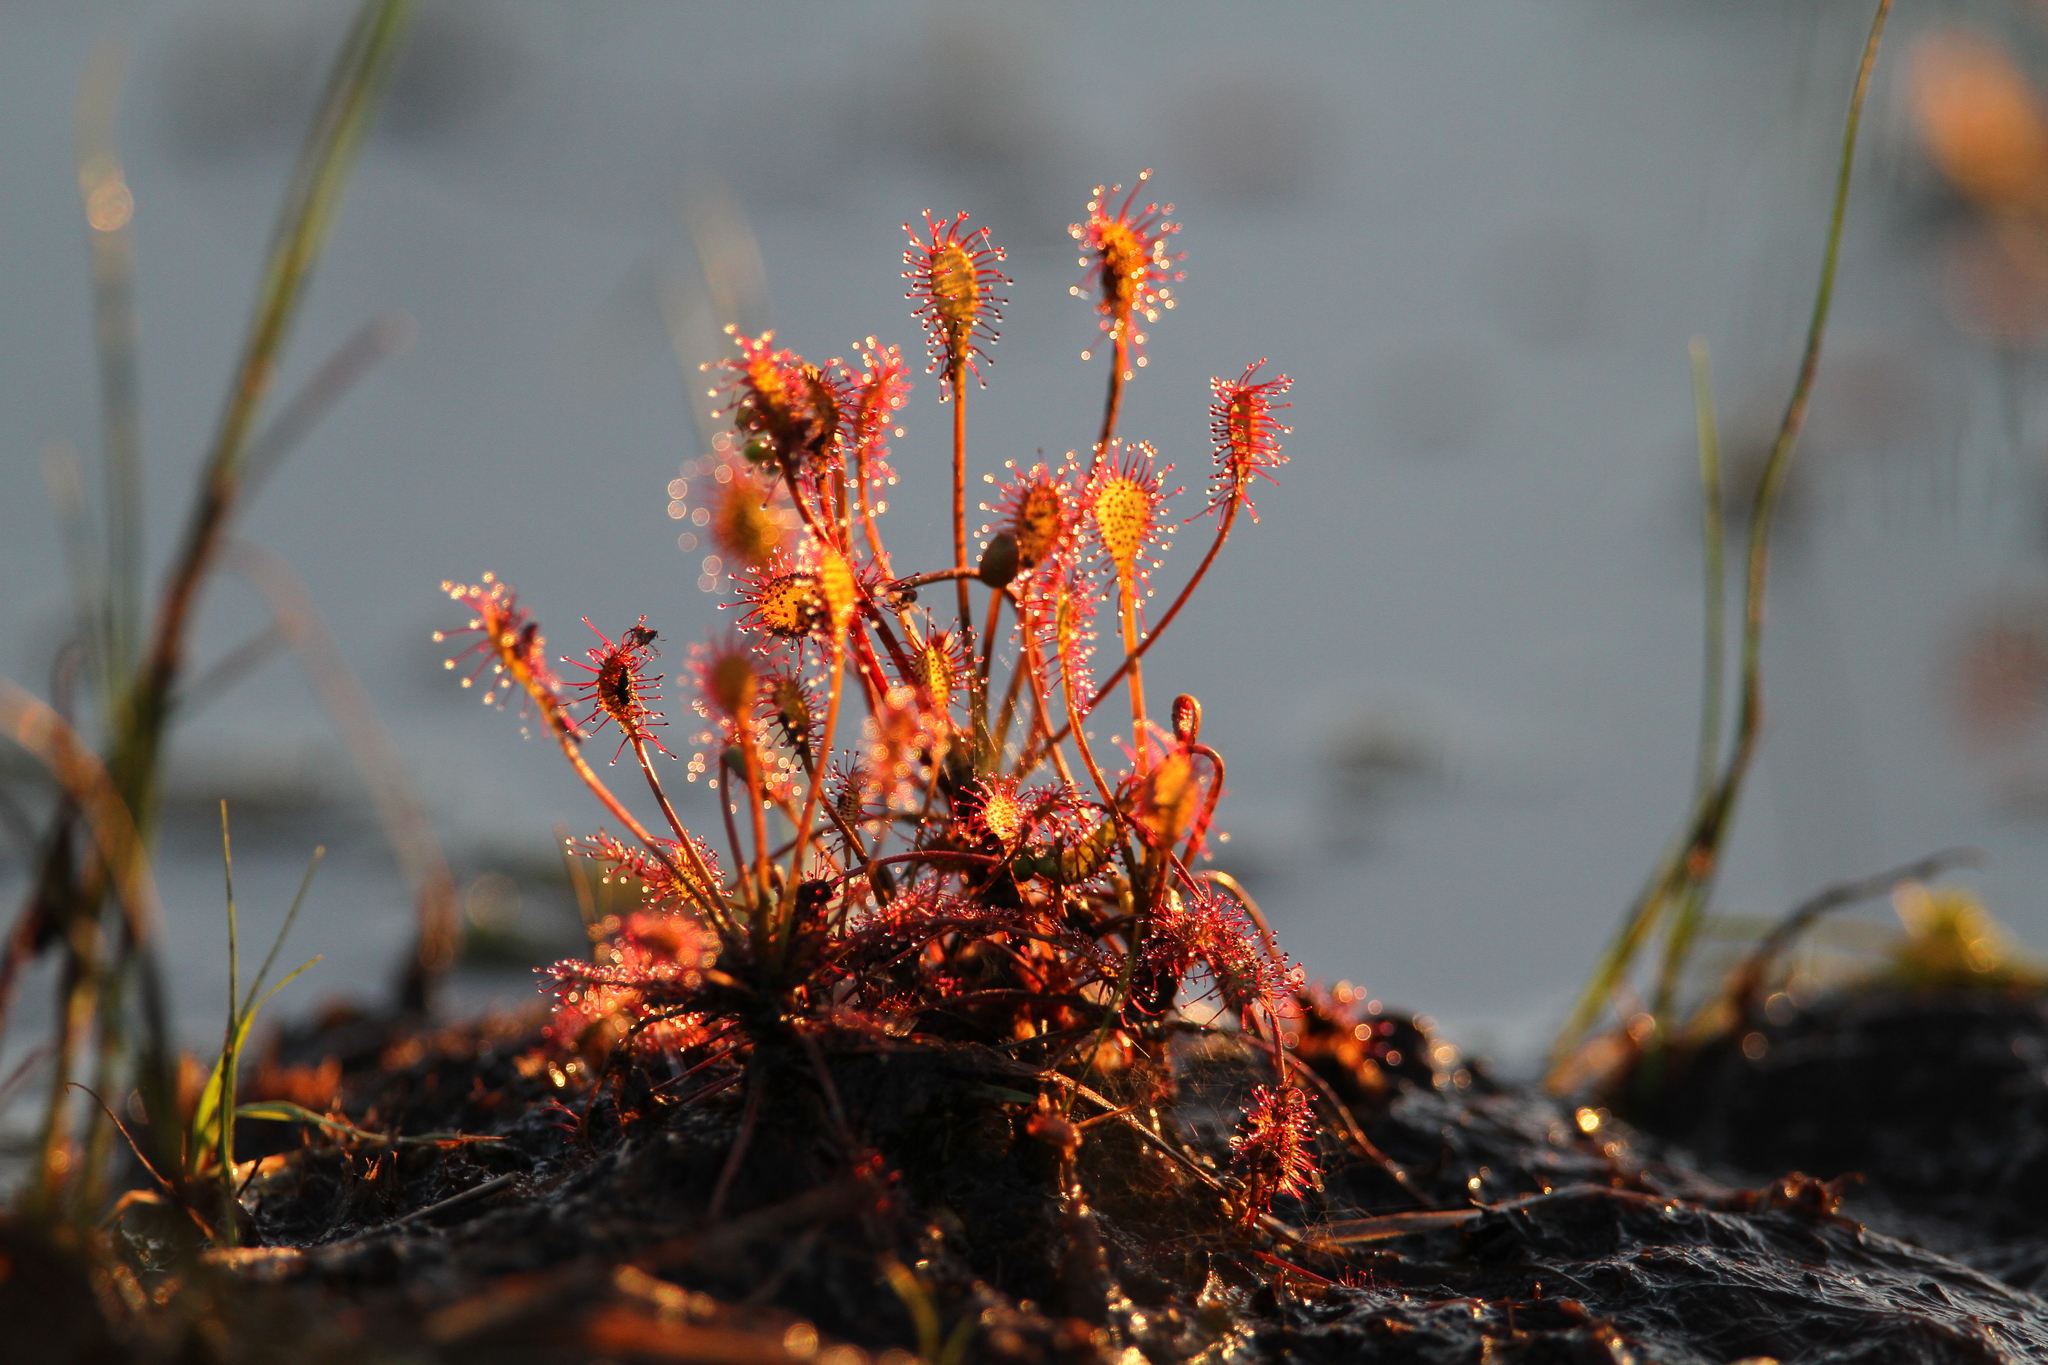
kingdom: Plantae
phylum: Tracheophyta
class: Magnoliopsida
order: Caryophyllales
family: Droseraceae
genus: Drosera
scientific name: Drosera intermedia
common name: Oblong-leaved sundew
